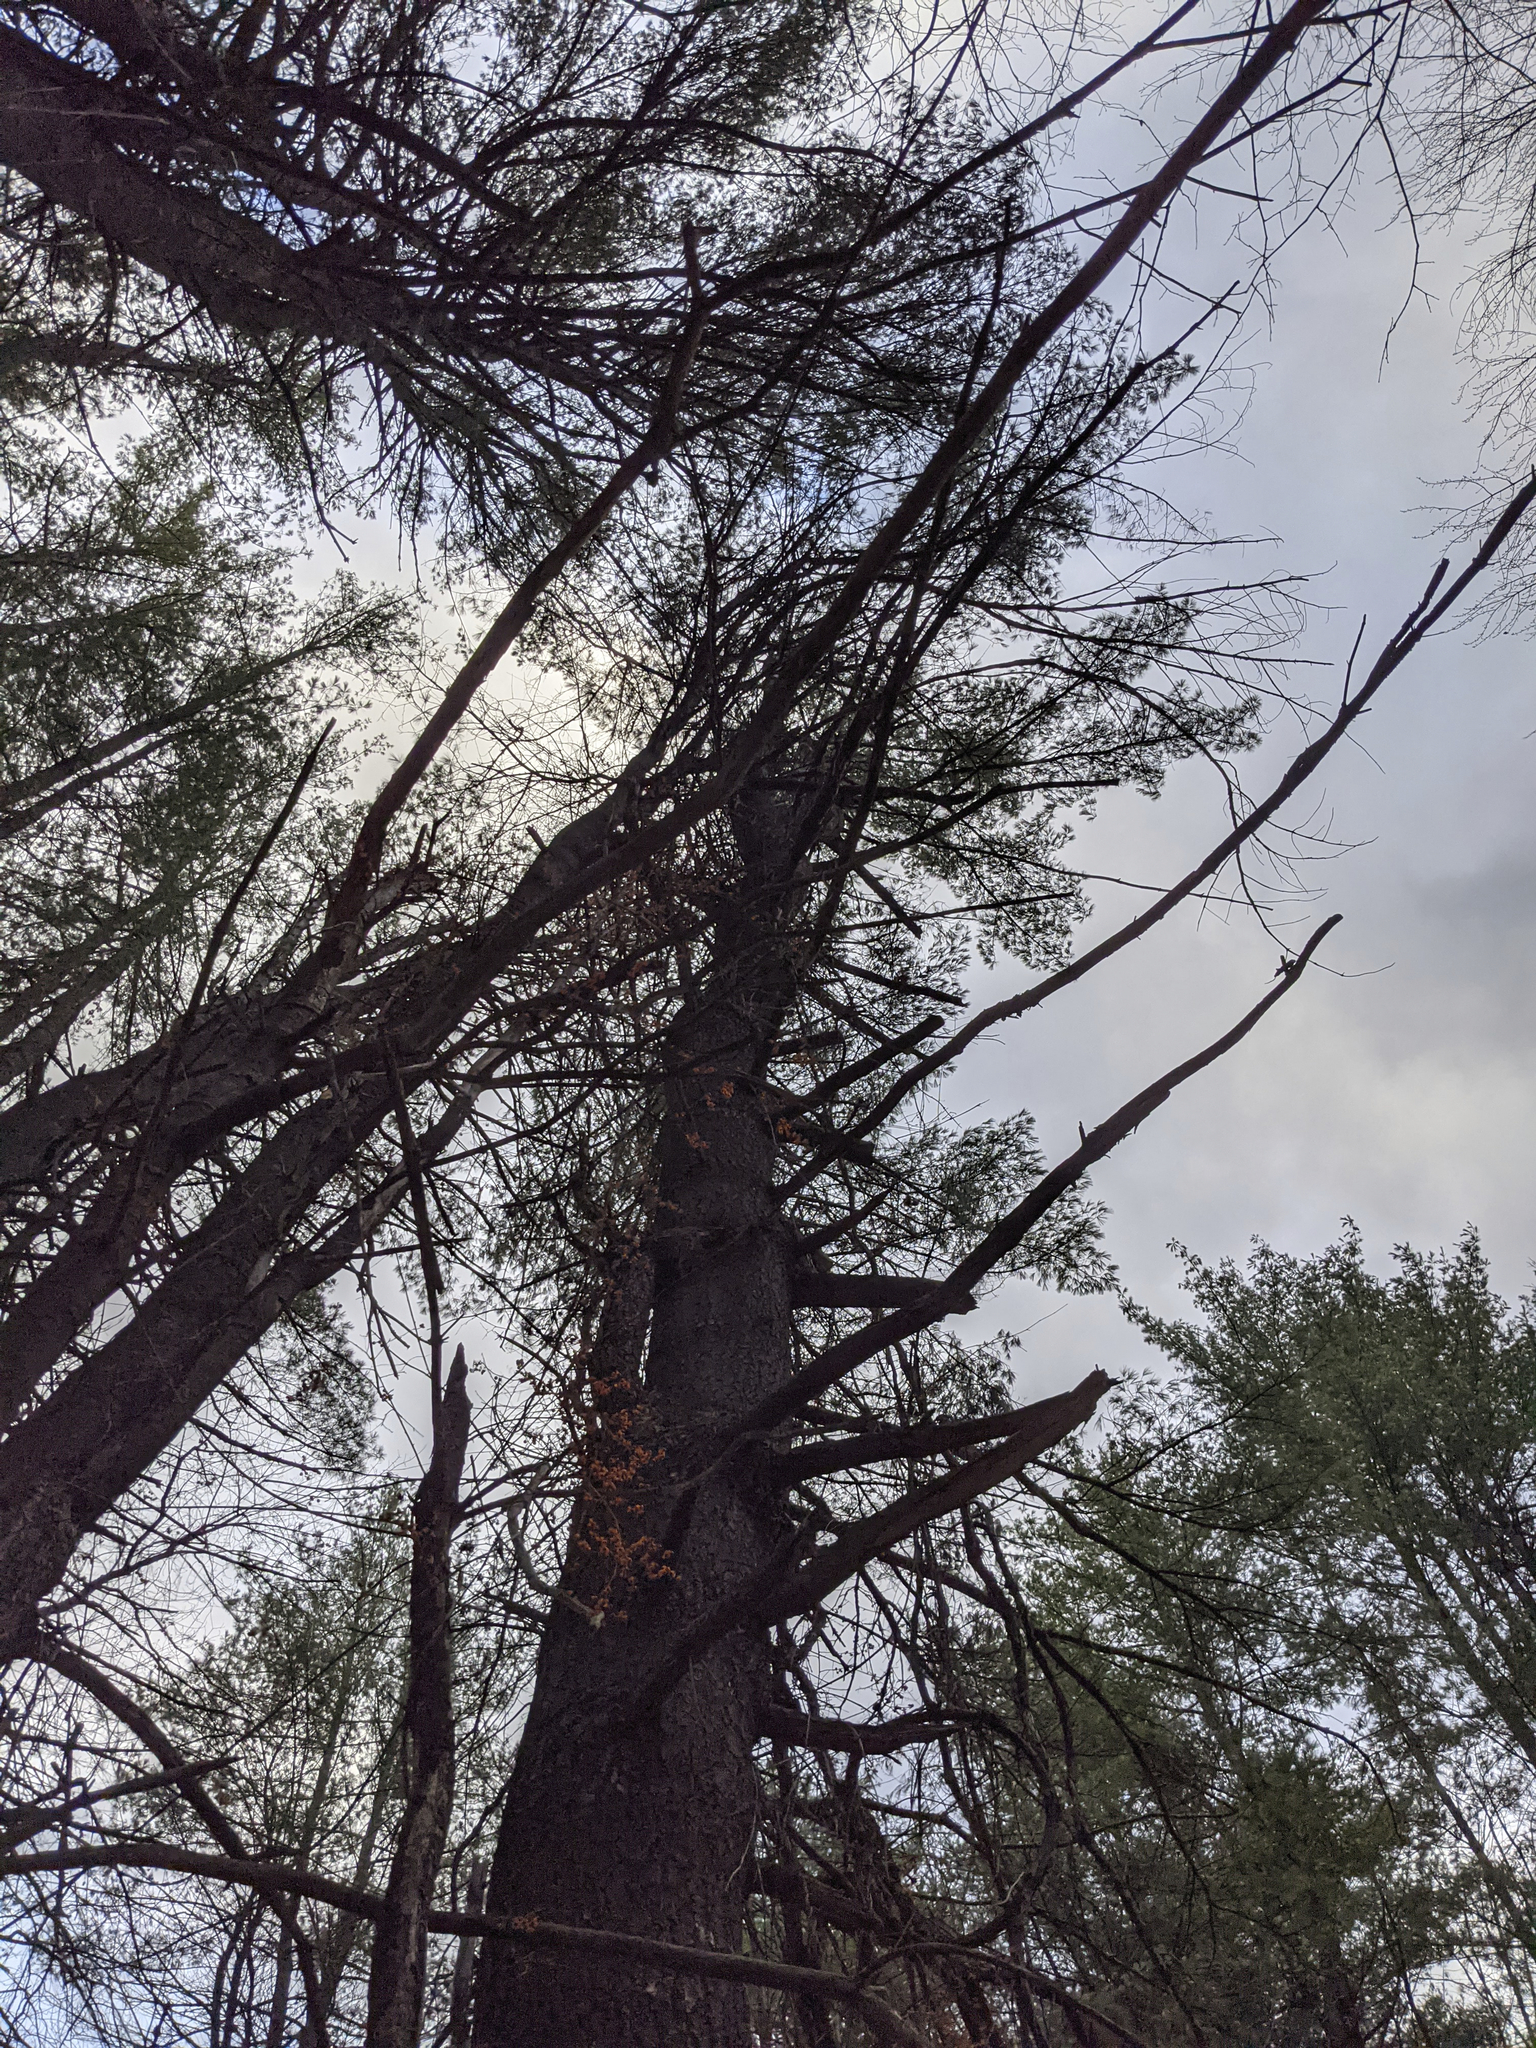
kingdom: Plantae
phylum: Tracheophyta
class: Pinopsida
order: Pinales
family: Pinaceae
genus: Pinus
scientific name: Pinus strobus
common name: Weymouth pine
